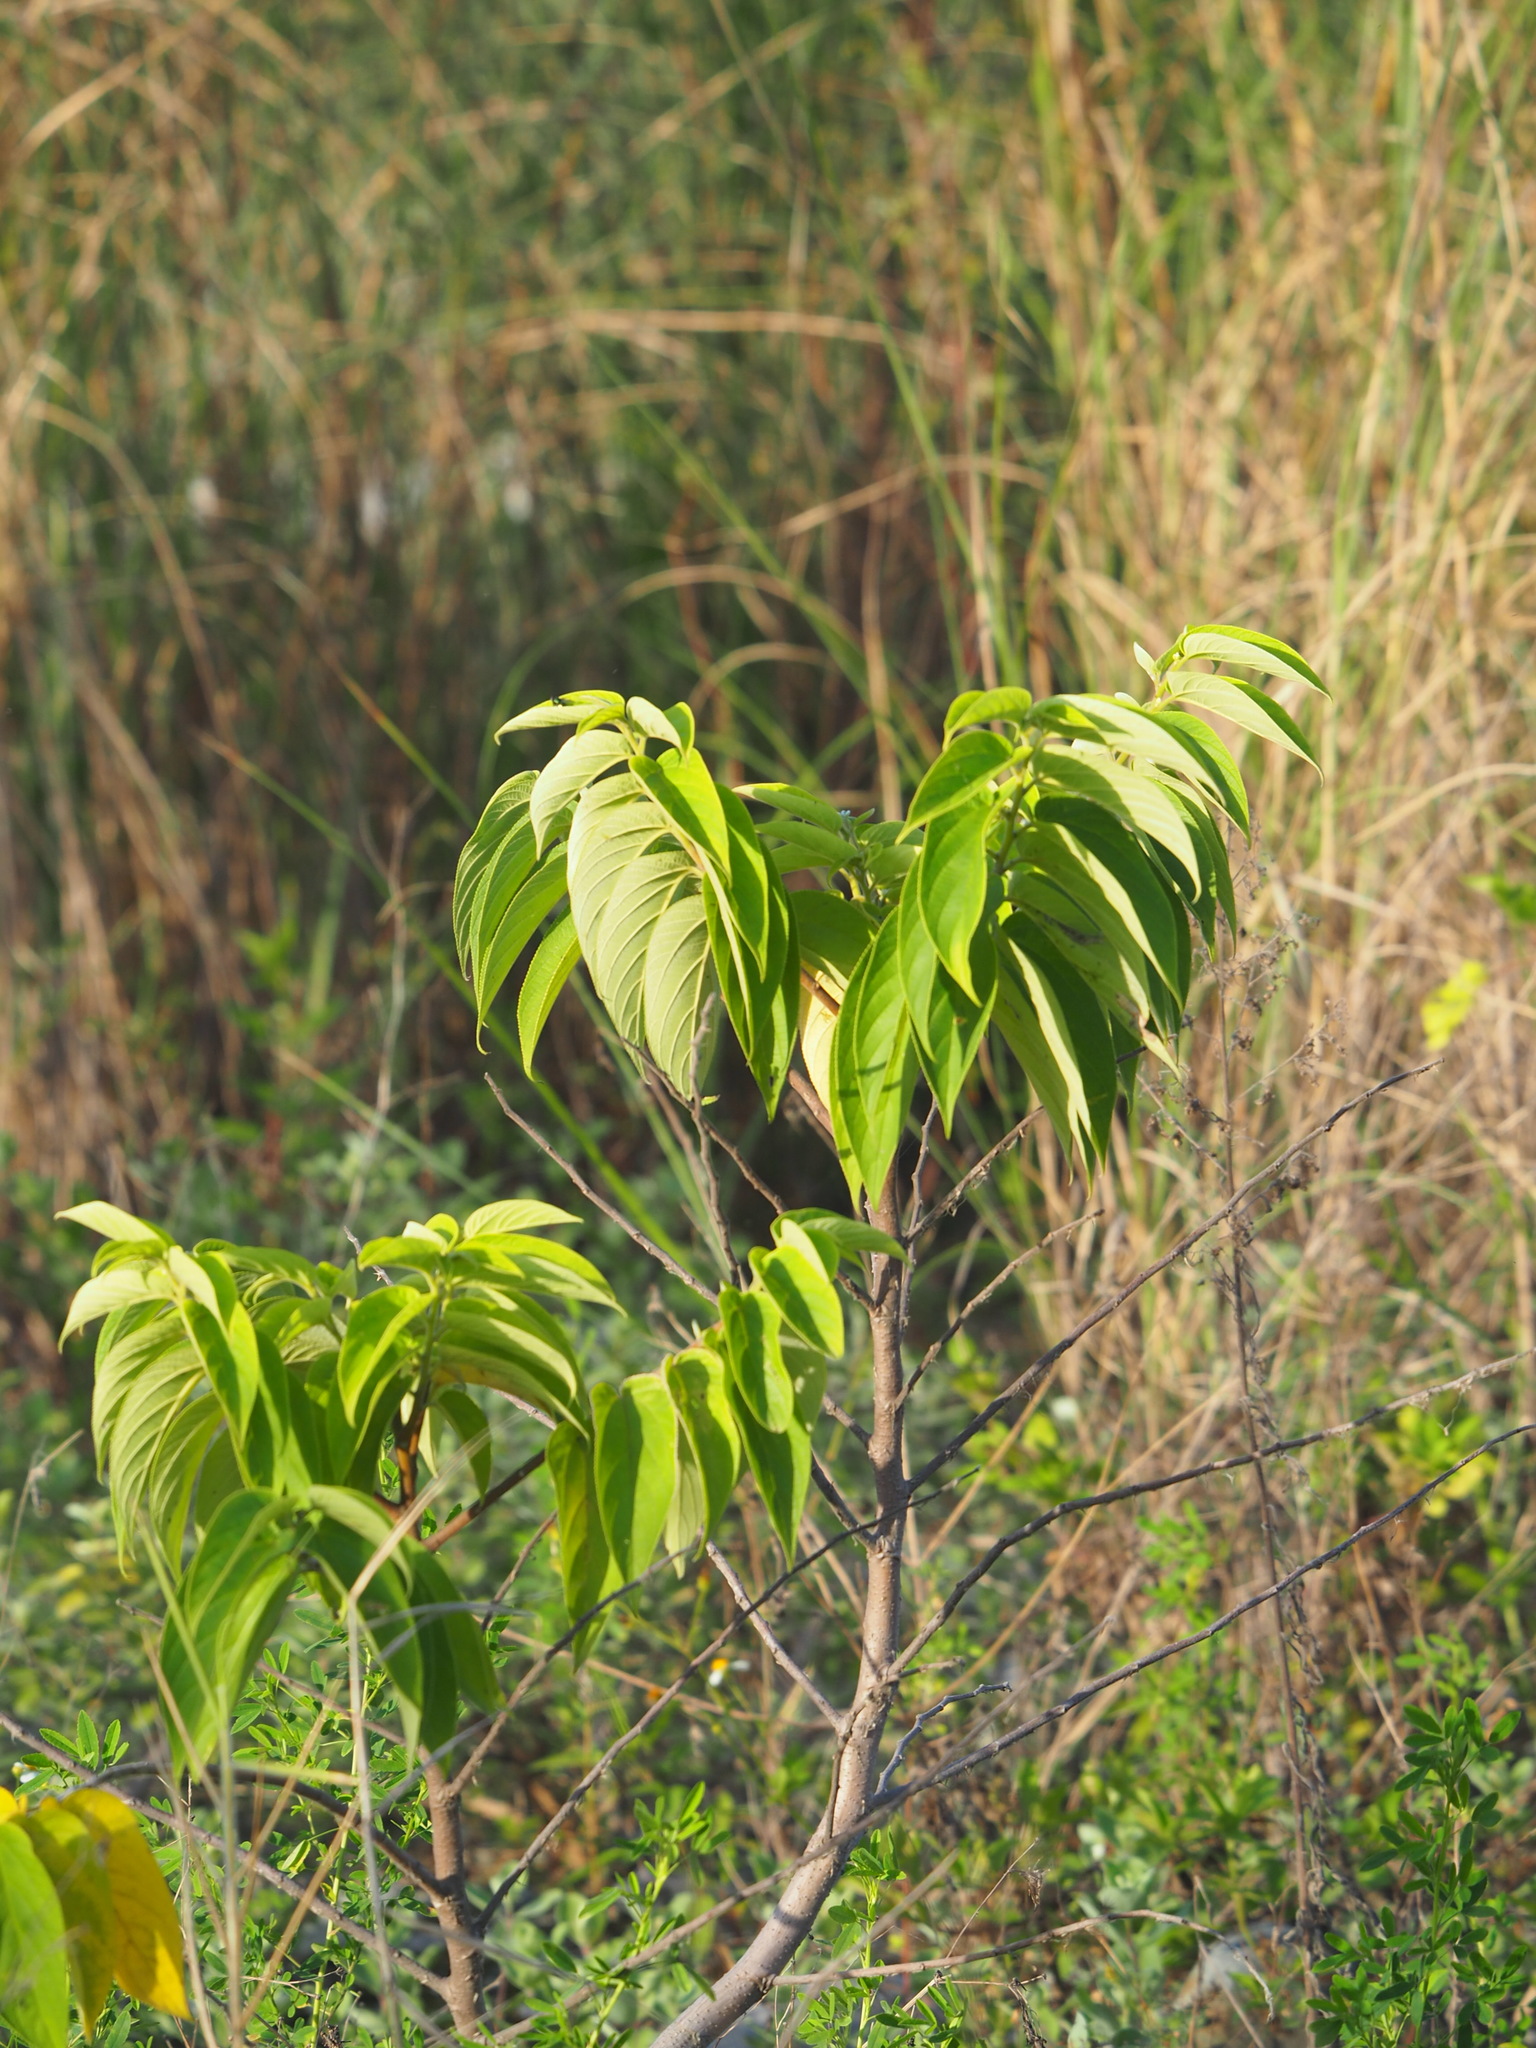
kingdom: Plantae
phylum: Tracheophyta
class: Magnoliopsida
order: Rosales
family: Cannabaceae
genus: Trema
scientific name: Trema orientale
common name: Indian charcoal tree
